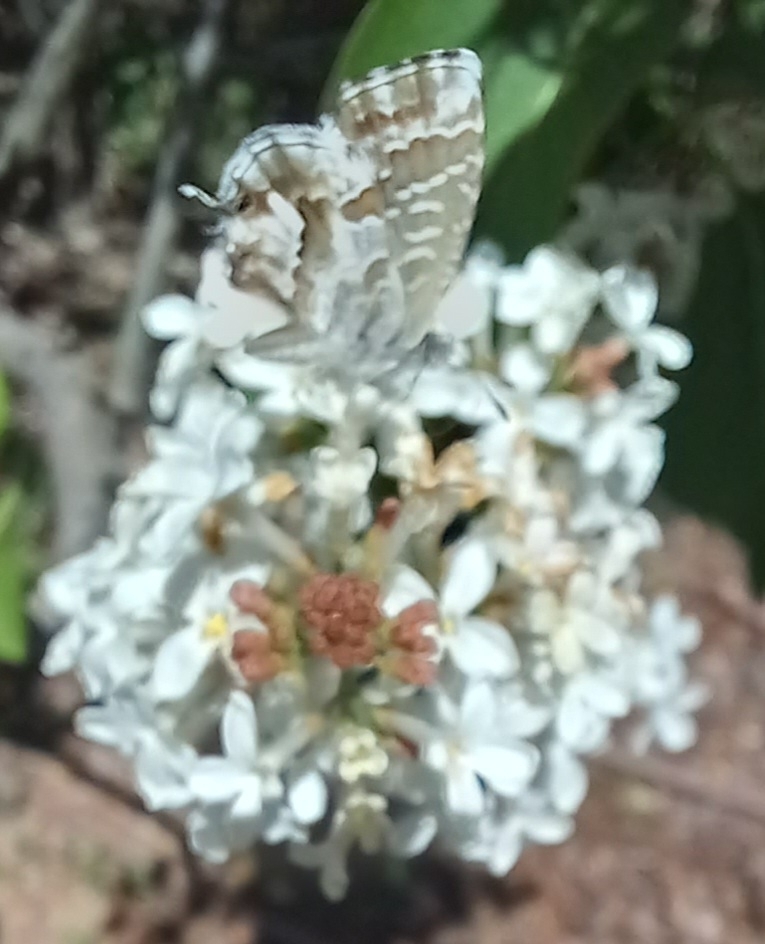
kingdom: Animalia
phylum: Arthropoda
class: Insecta
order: Lepidoptera
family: Lycaenidae
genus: Cacyreus
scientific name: Cacyreus marshalli
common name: Geranium bronze
